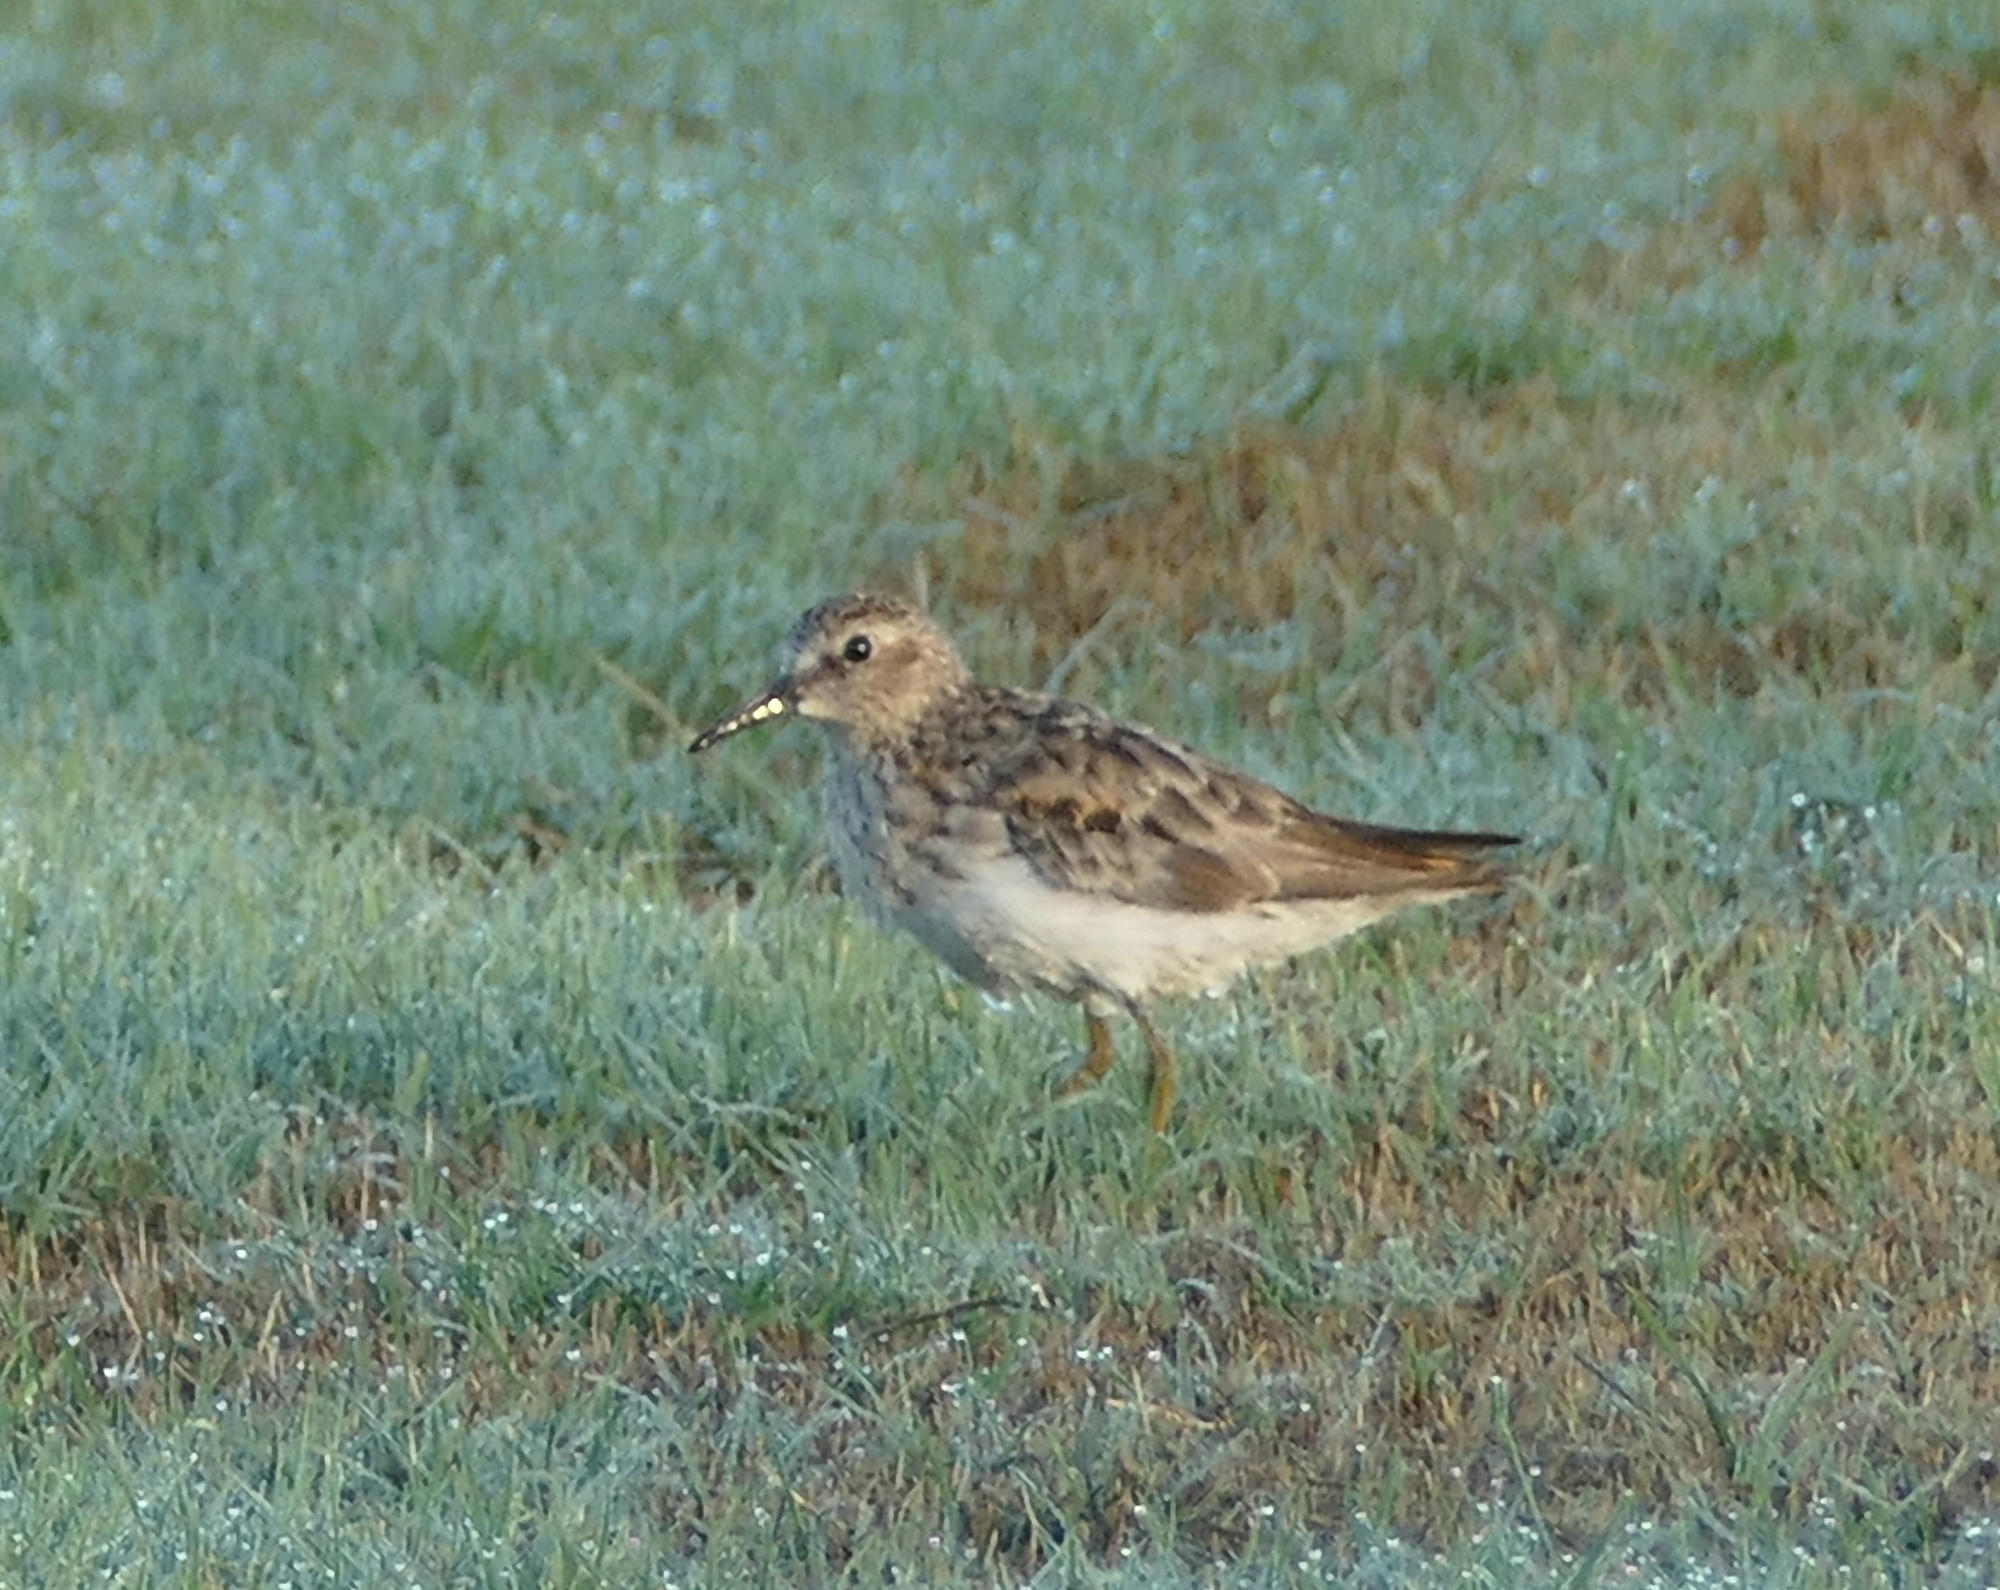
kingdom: Animalia
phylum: Chordata
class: Aves
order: Charadriiformes
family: Scolopacidae
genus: Calidris
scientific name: Calidris minutilla
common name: Least sandpiper
